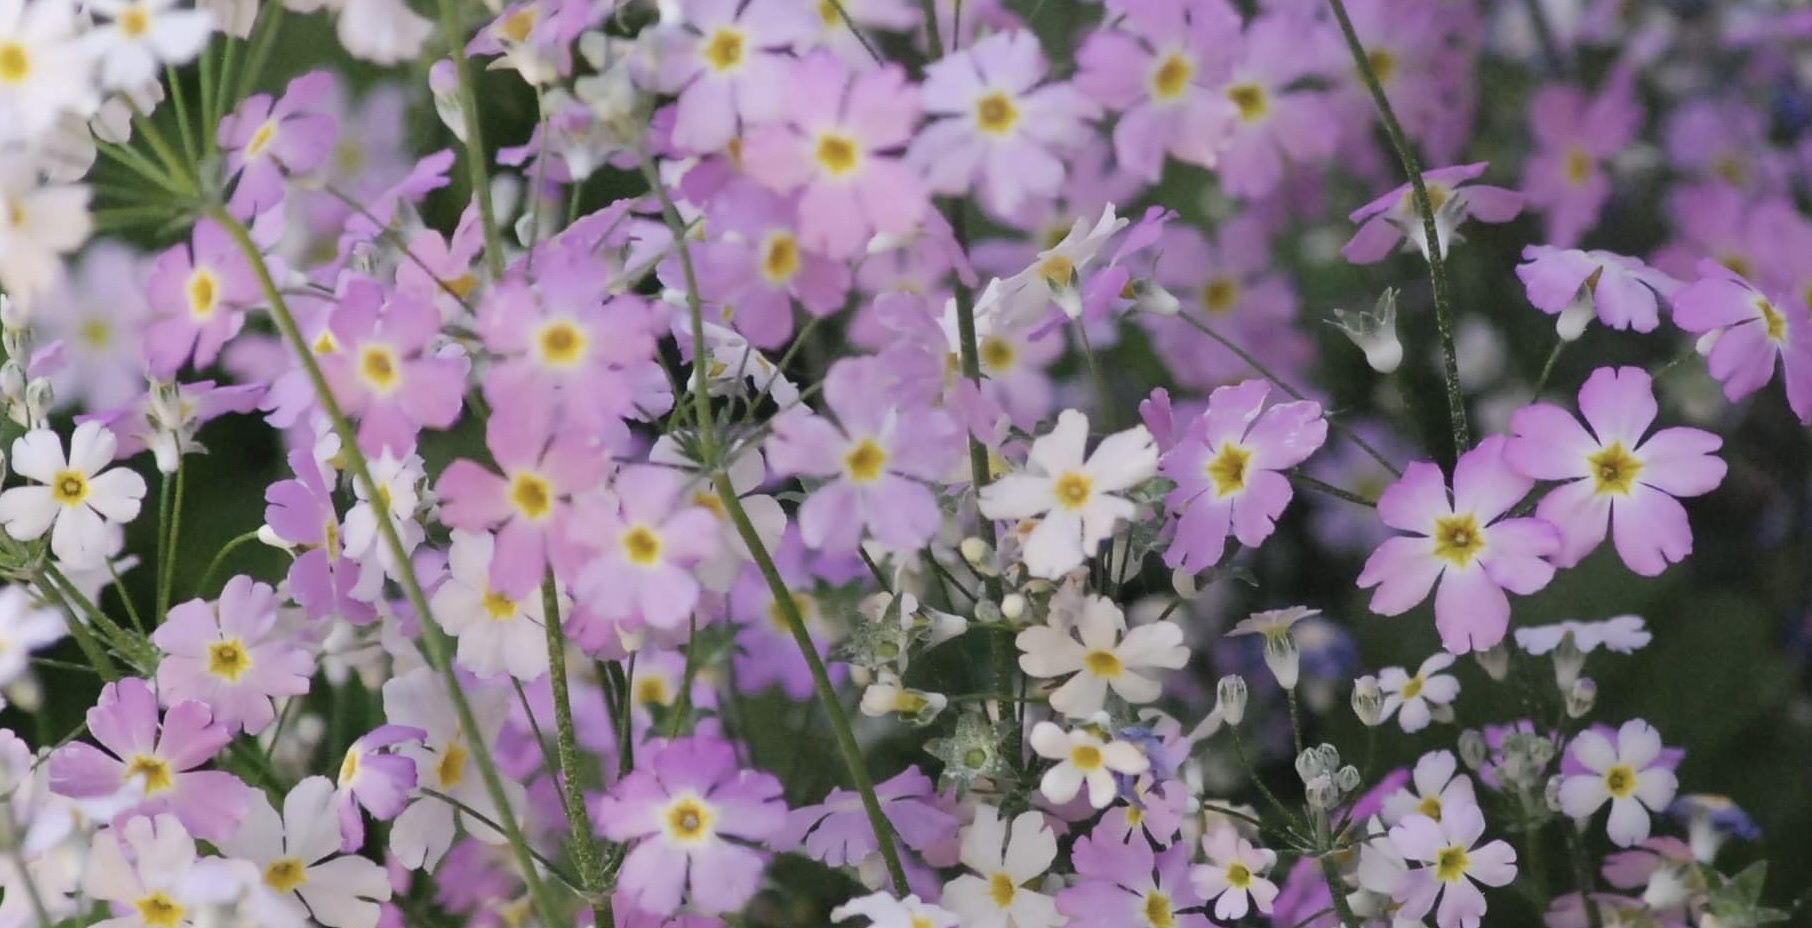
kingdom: Plantae
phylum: Tracheophyta
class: Magnoliopsida
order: Ericales
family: Primulaceae
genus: Primula
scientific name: Primula malacoides
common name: Baby primrose
